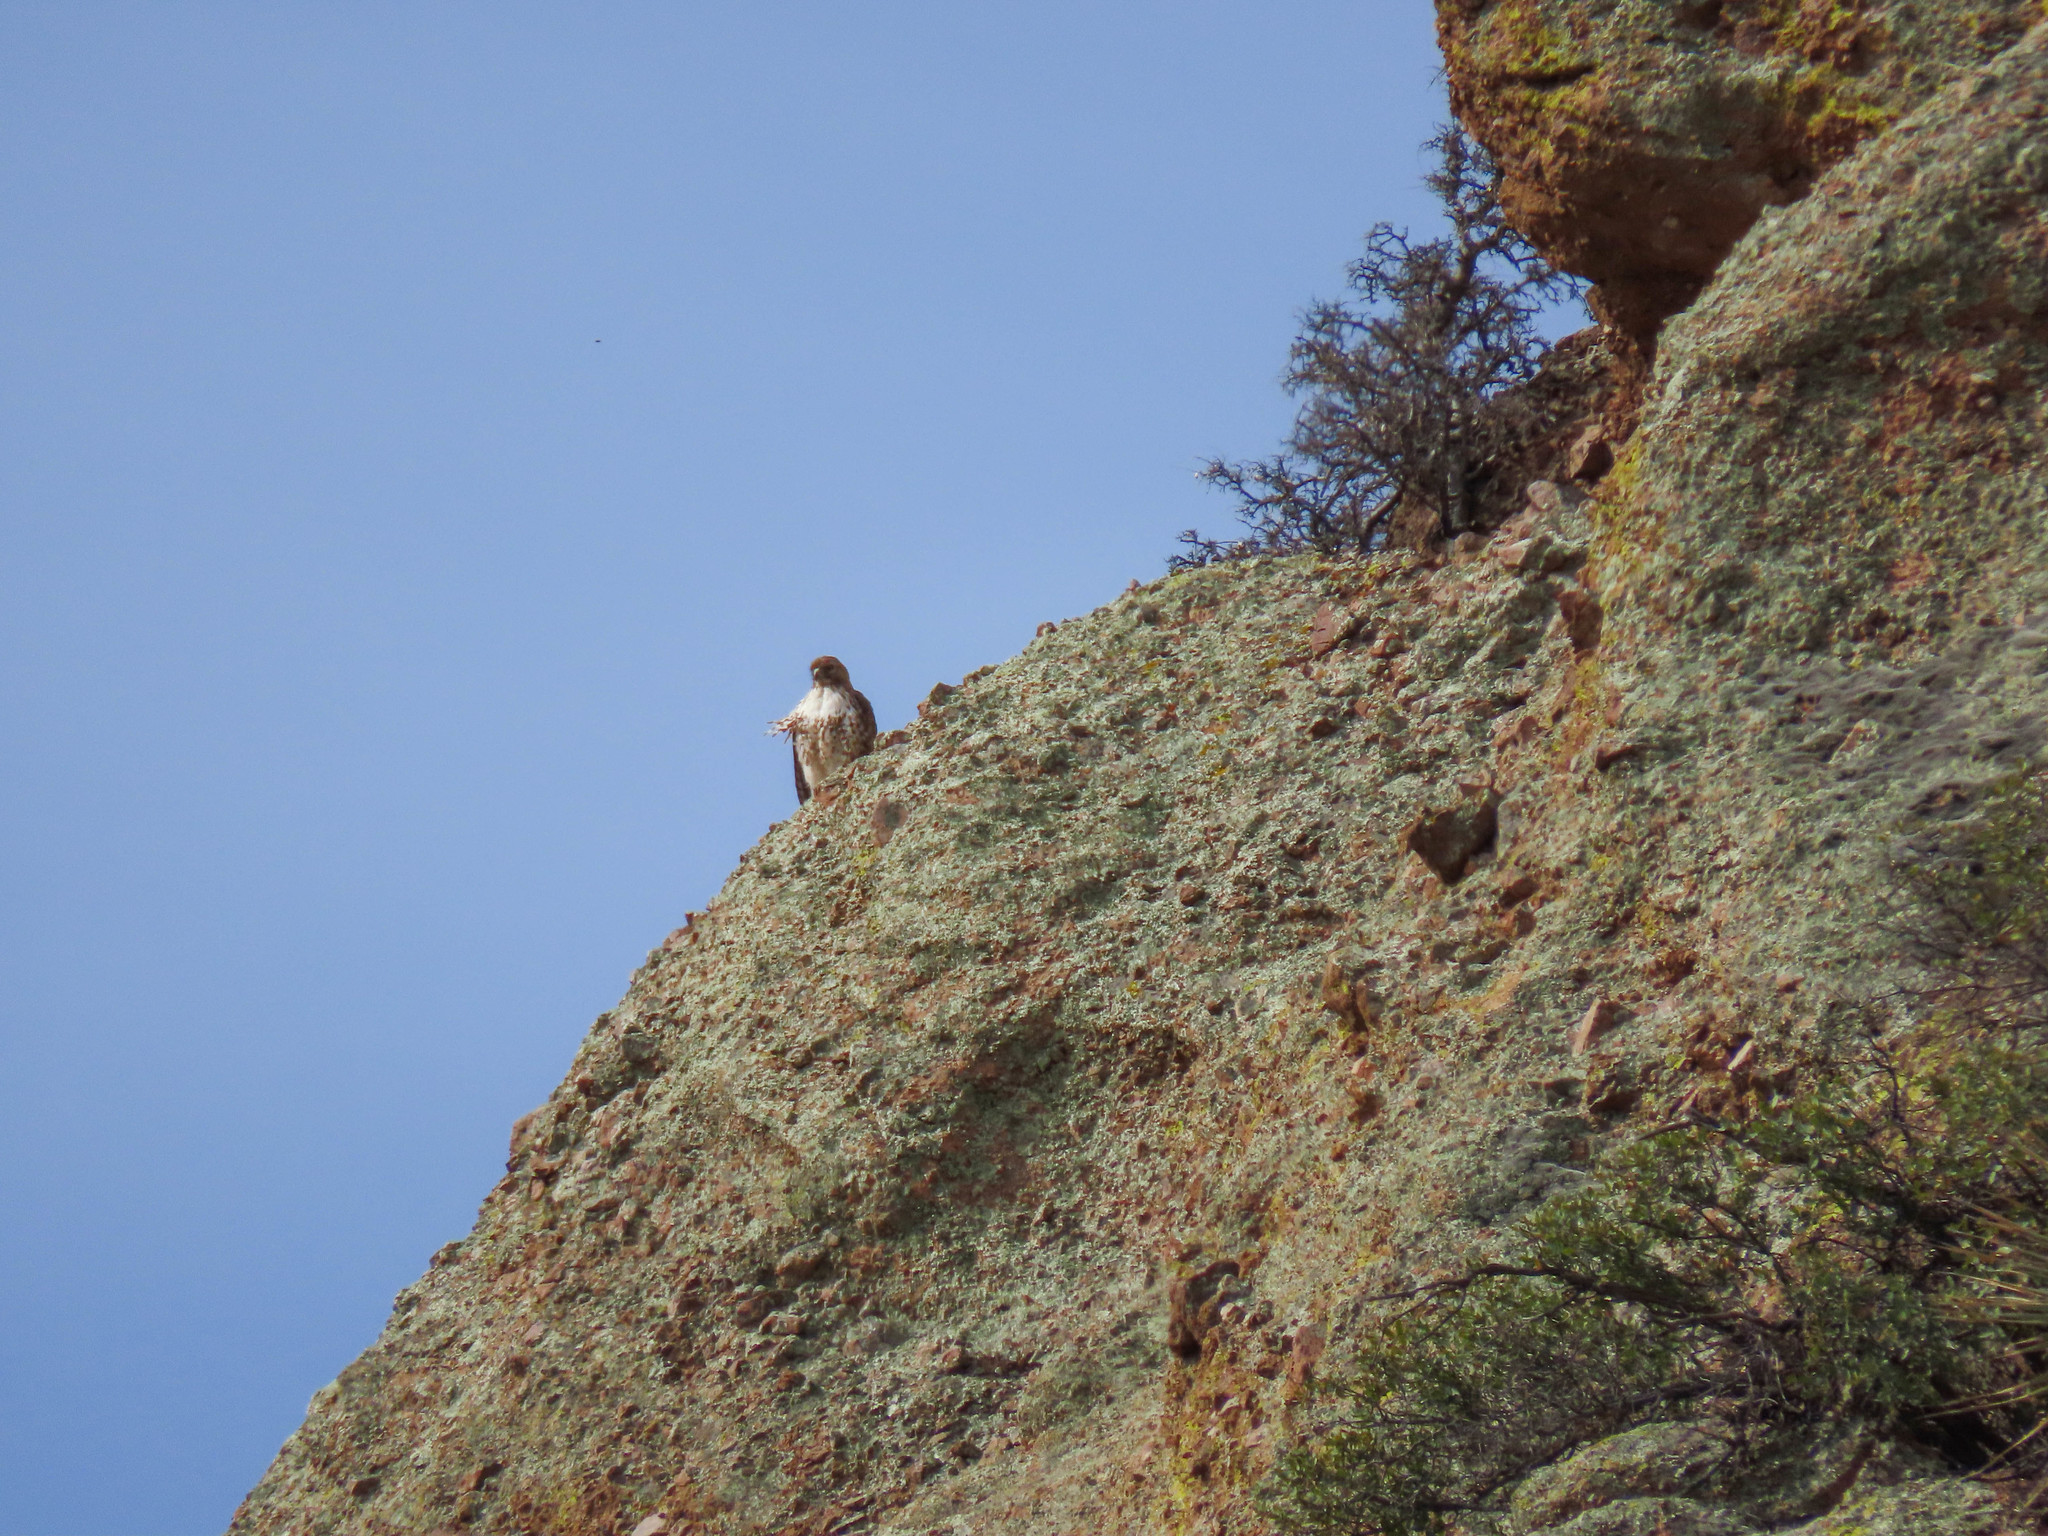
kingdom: Animalia
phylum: Chordata
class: Aves
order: Accipitriformes
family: Accipitridae
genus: Buteo
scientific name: Buteo jamaicensis
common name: Red-tailed hawk
